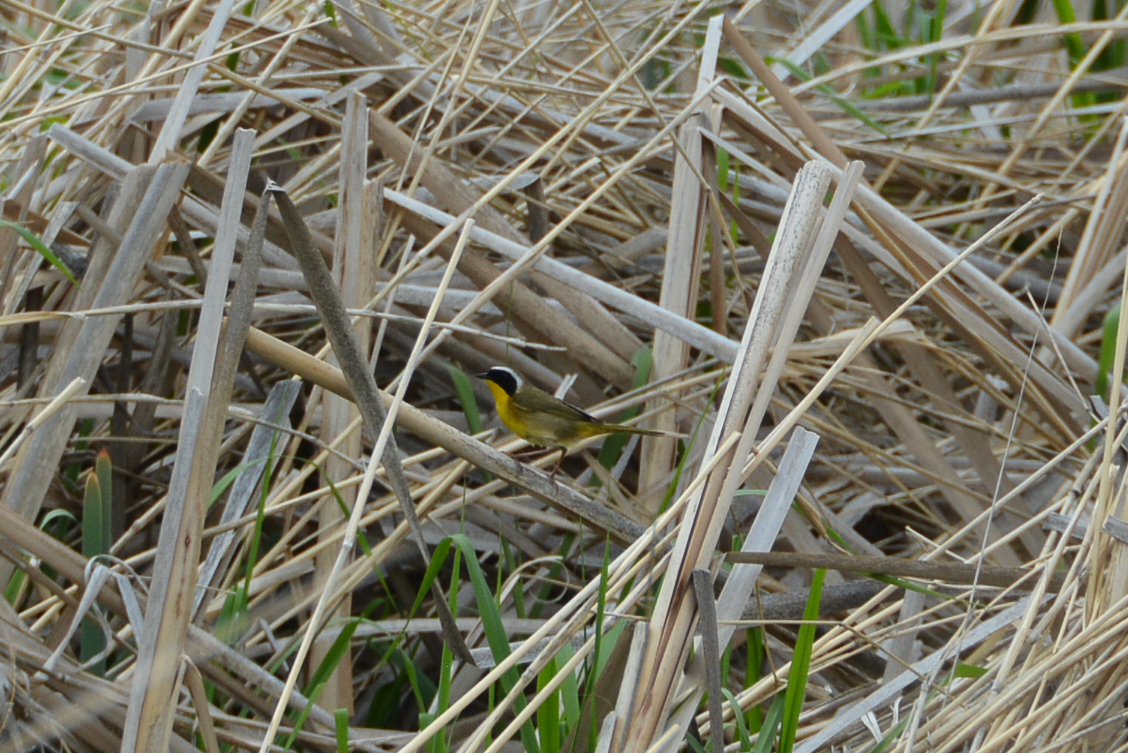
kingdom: Animalia
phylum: Chordata
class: Aves
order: Passeriformes
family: Parulidae
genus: Geothlypis
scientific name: Geothlypis trichas
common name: Common yellowthroat
